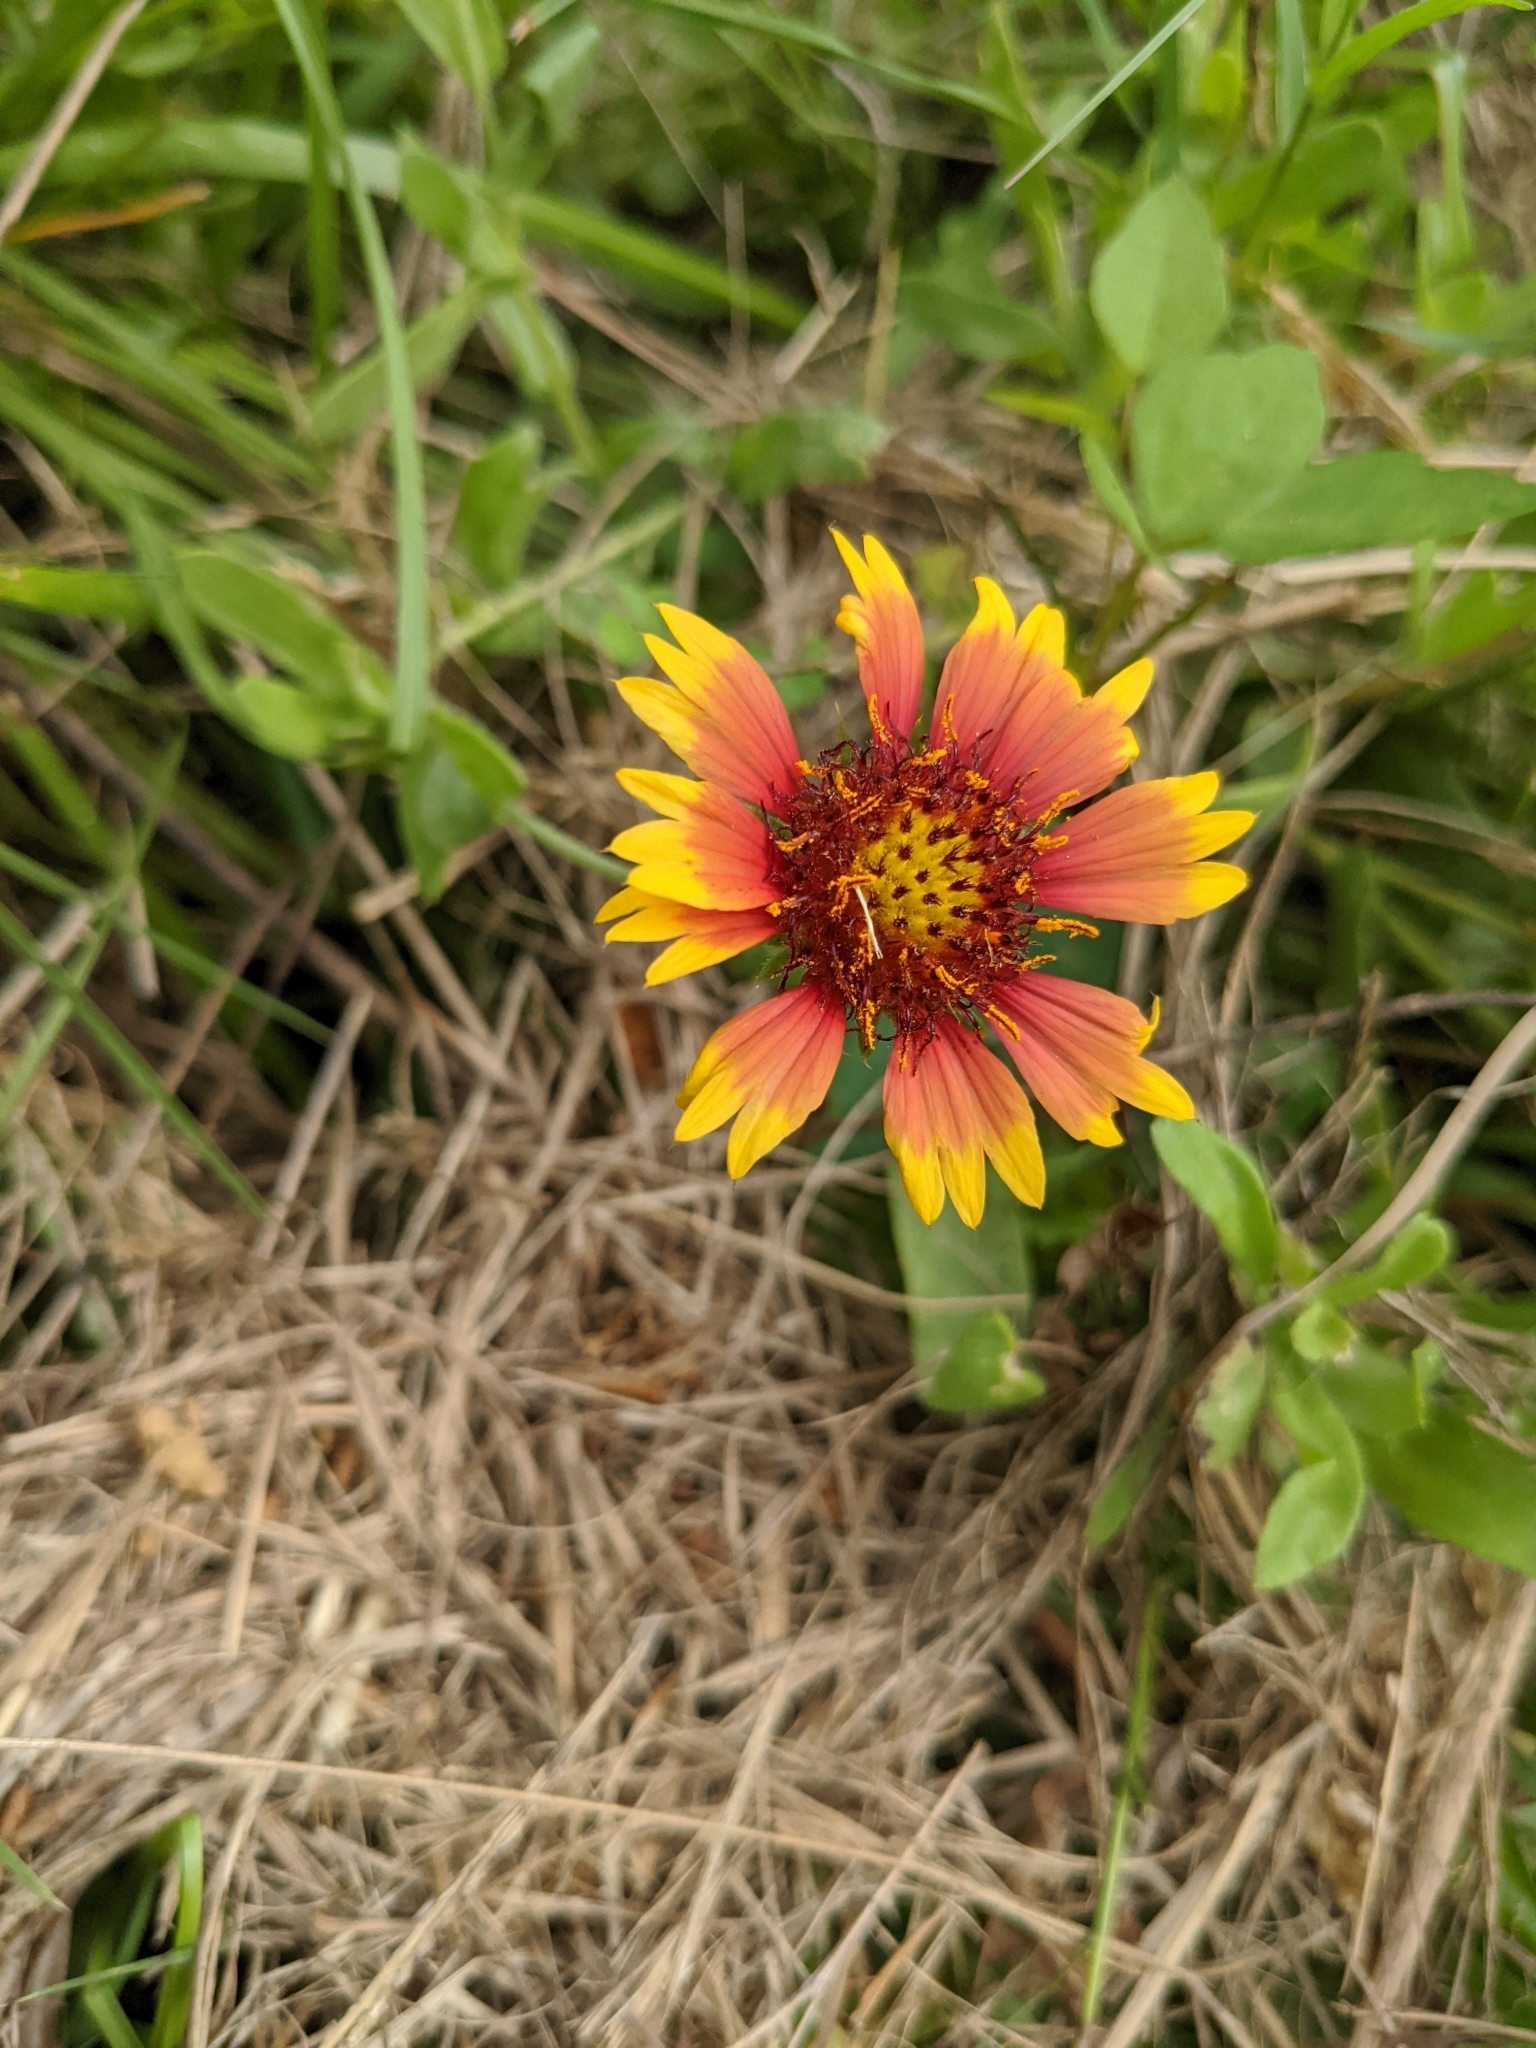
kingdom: Plantae
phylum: Tracheophyta
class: Magnoliopsida
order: Asterales
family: Asteraceae
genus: Gaillardia
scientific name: Gaillardia pulchella
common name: Firewheel
